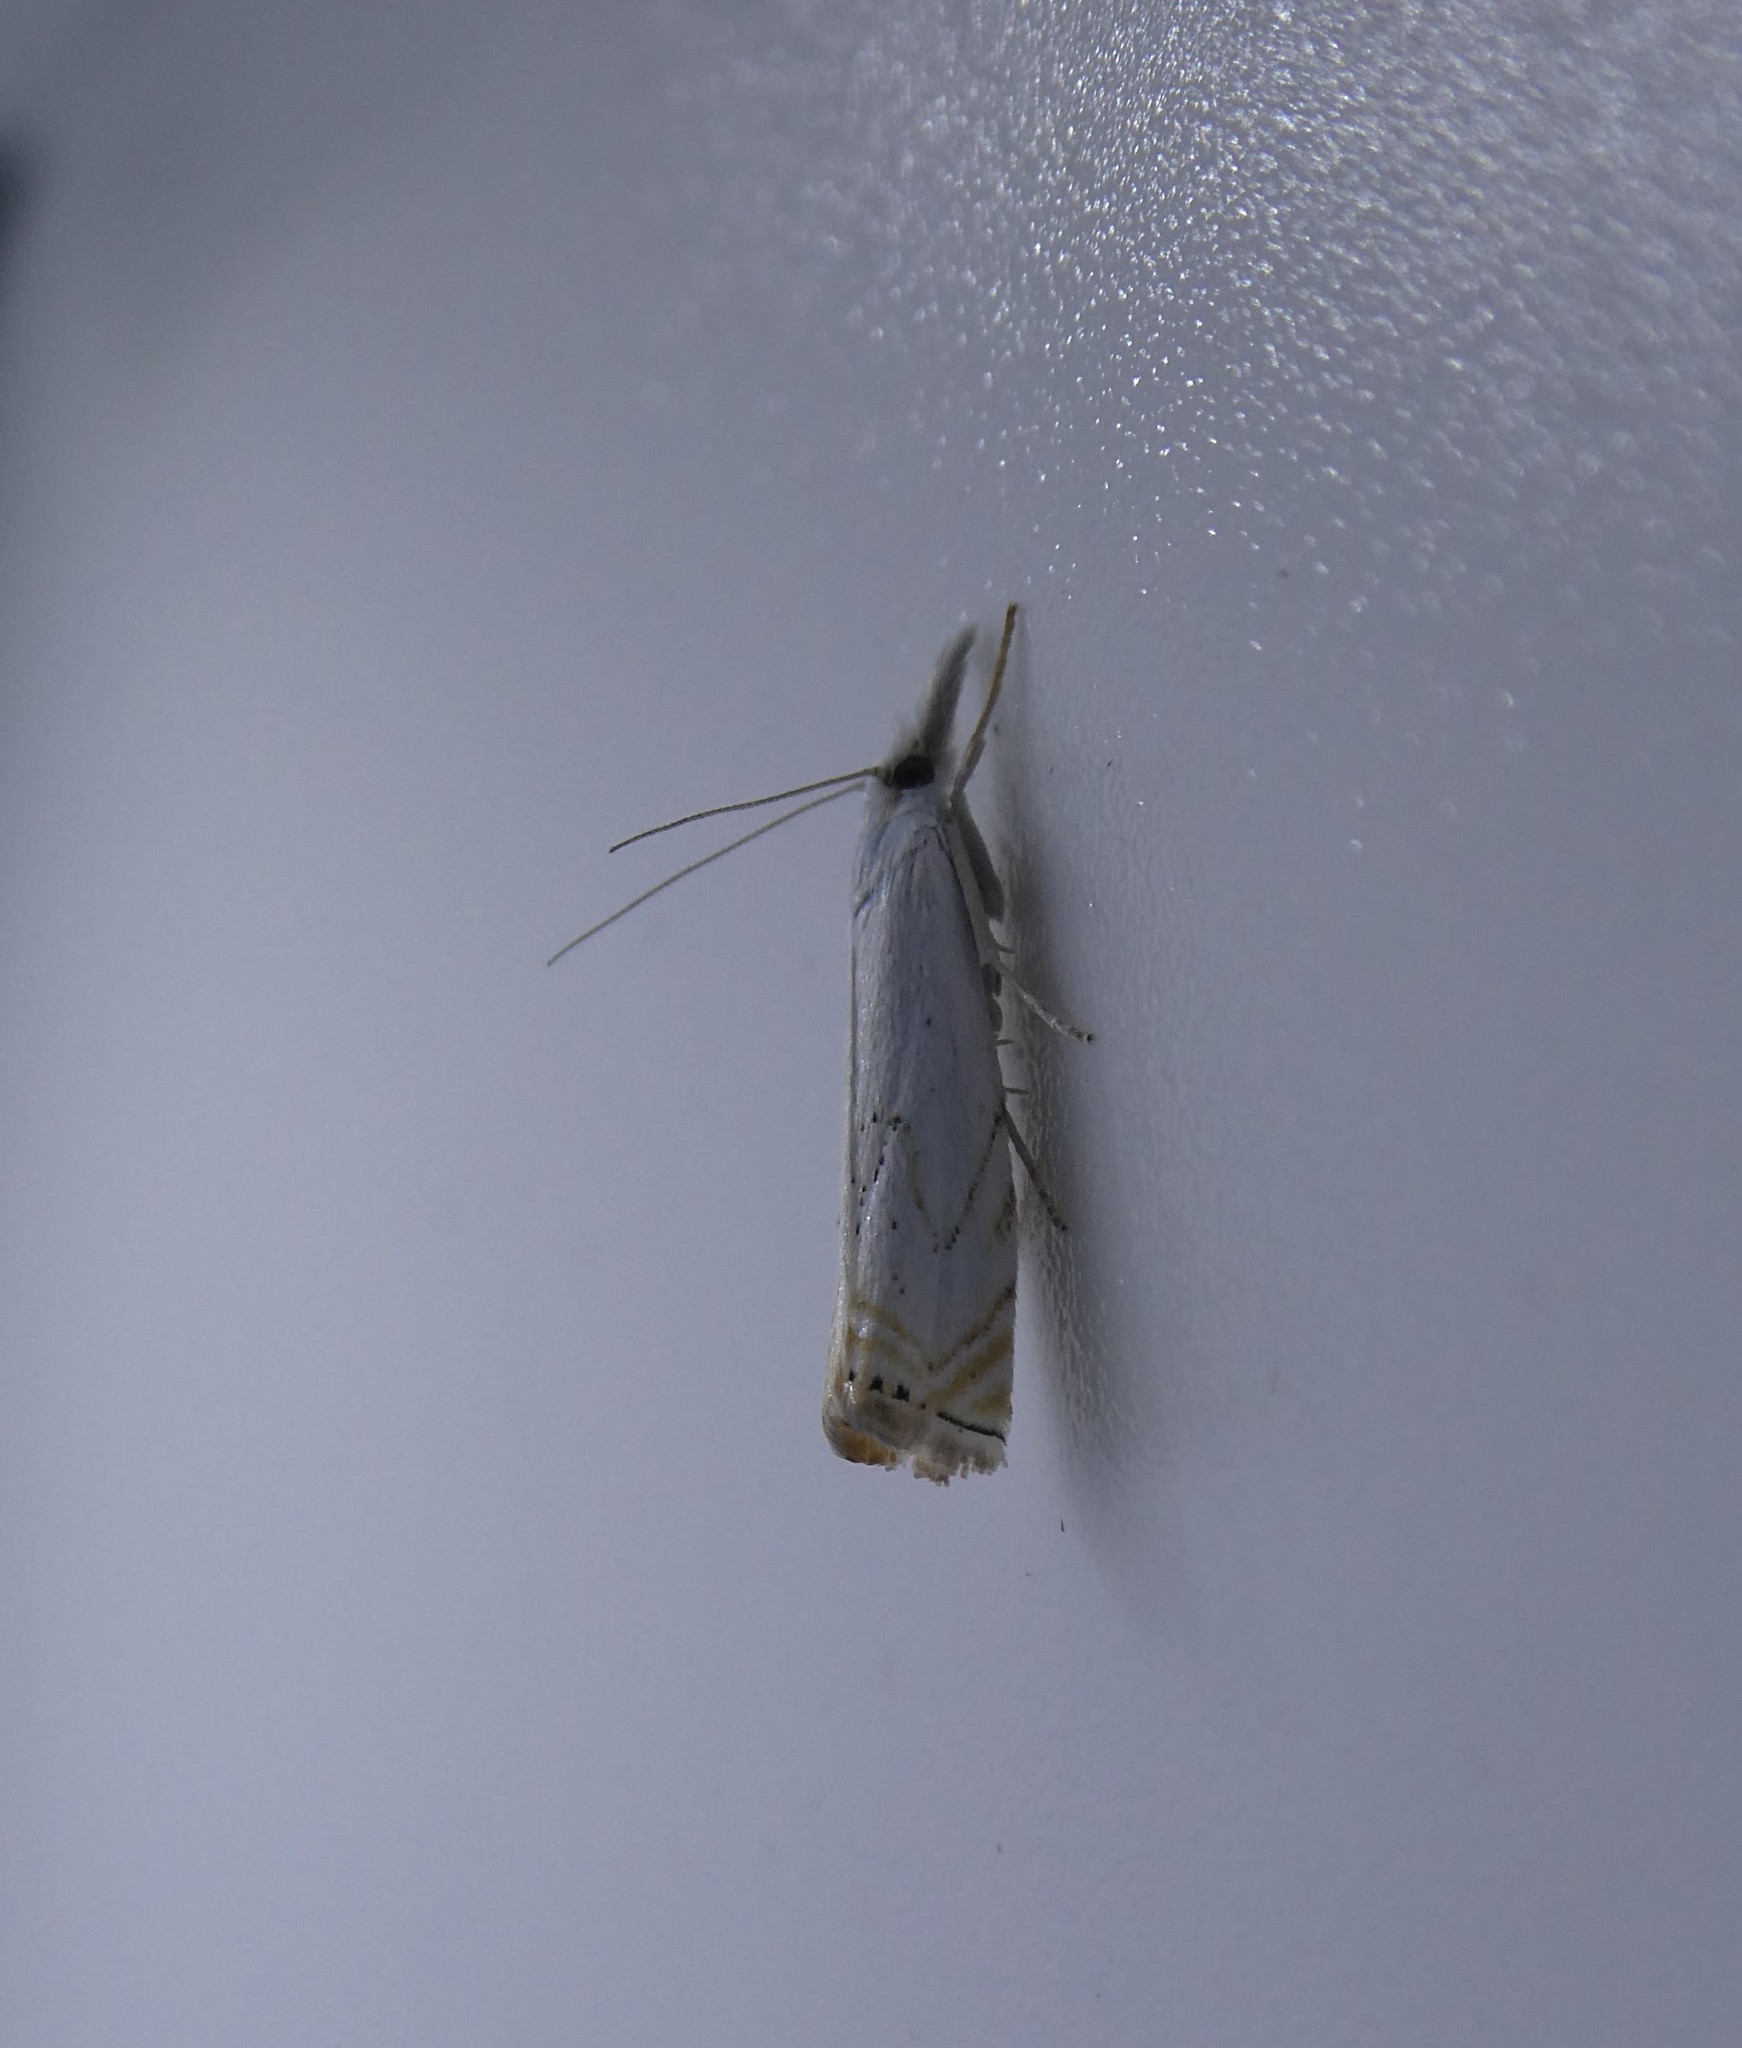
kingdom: Animalia
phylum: Arthropoda
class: Insecta
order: Lepidoptera
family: Crambidae
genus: Crambus
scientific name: Crambus albellus
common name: Small white grass-veneer
